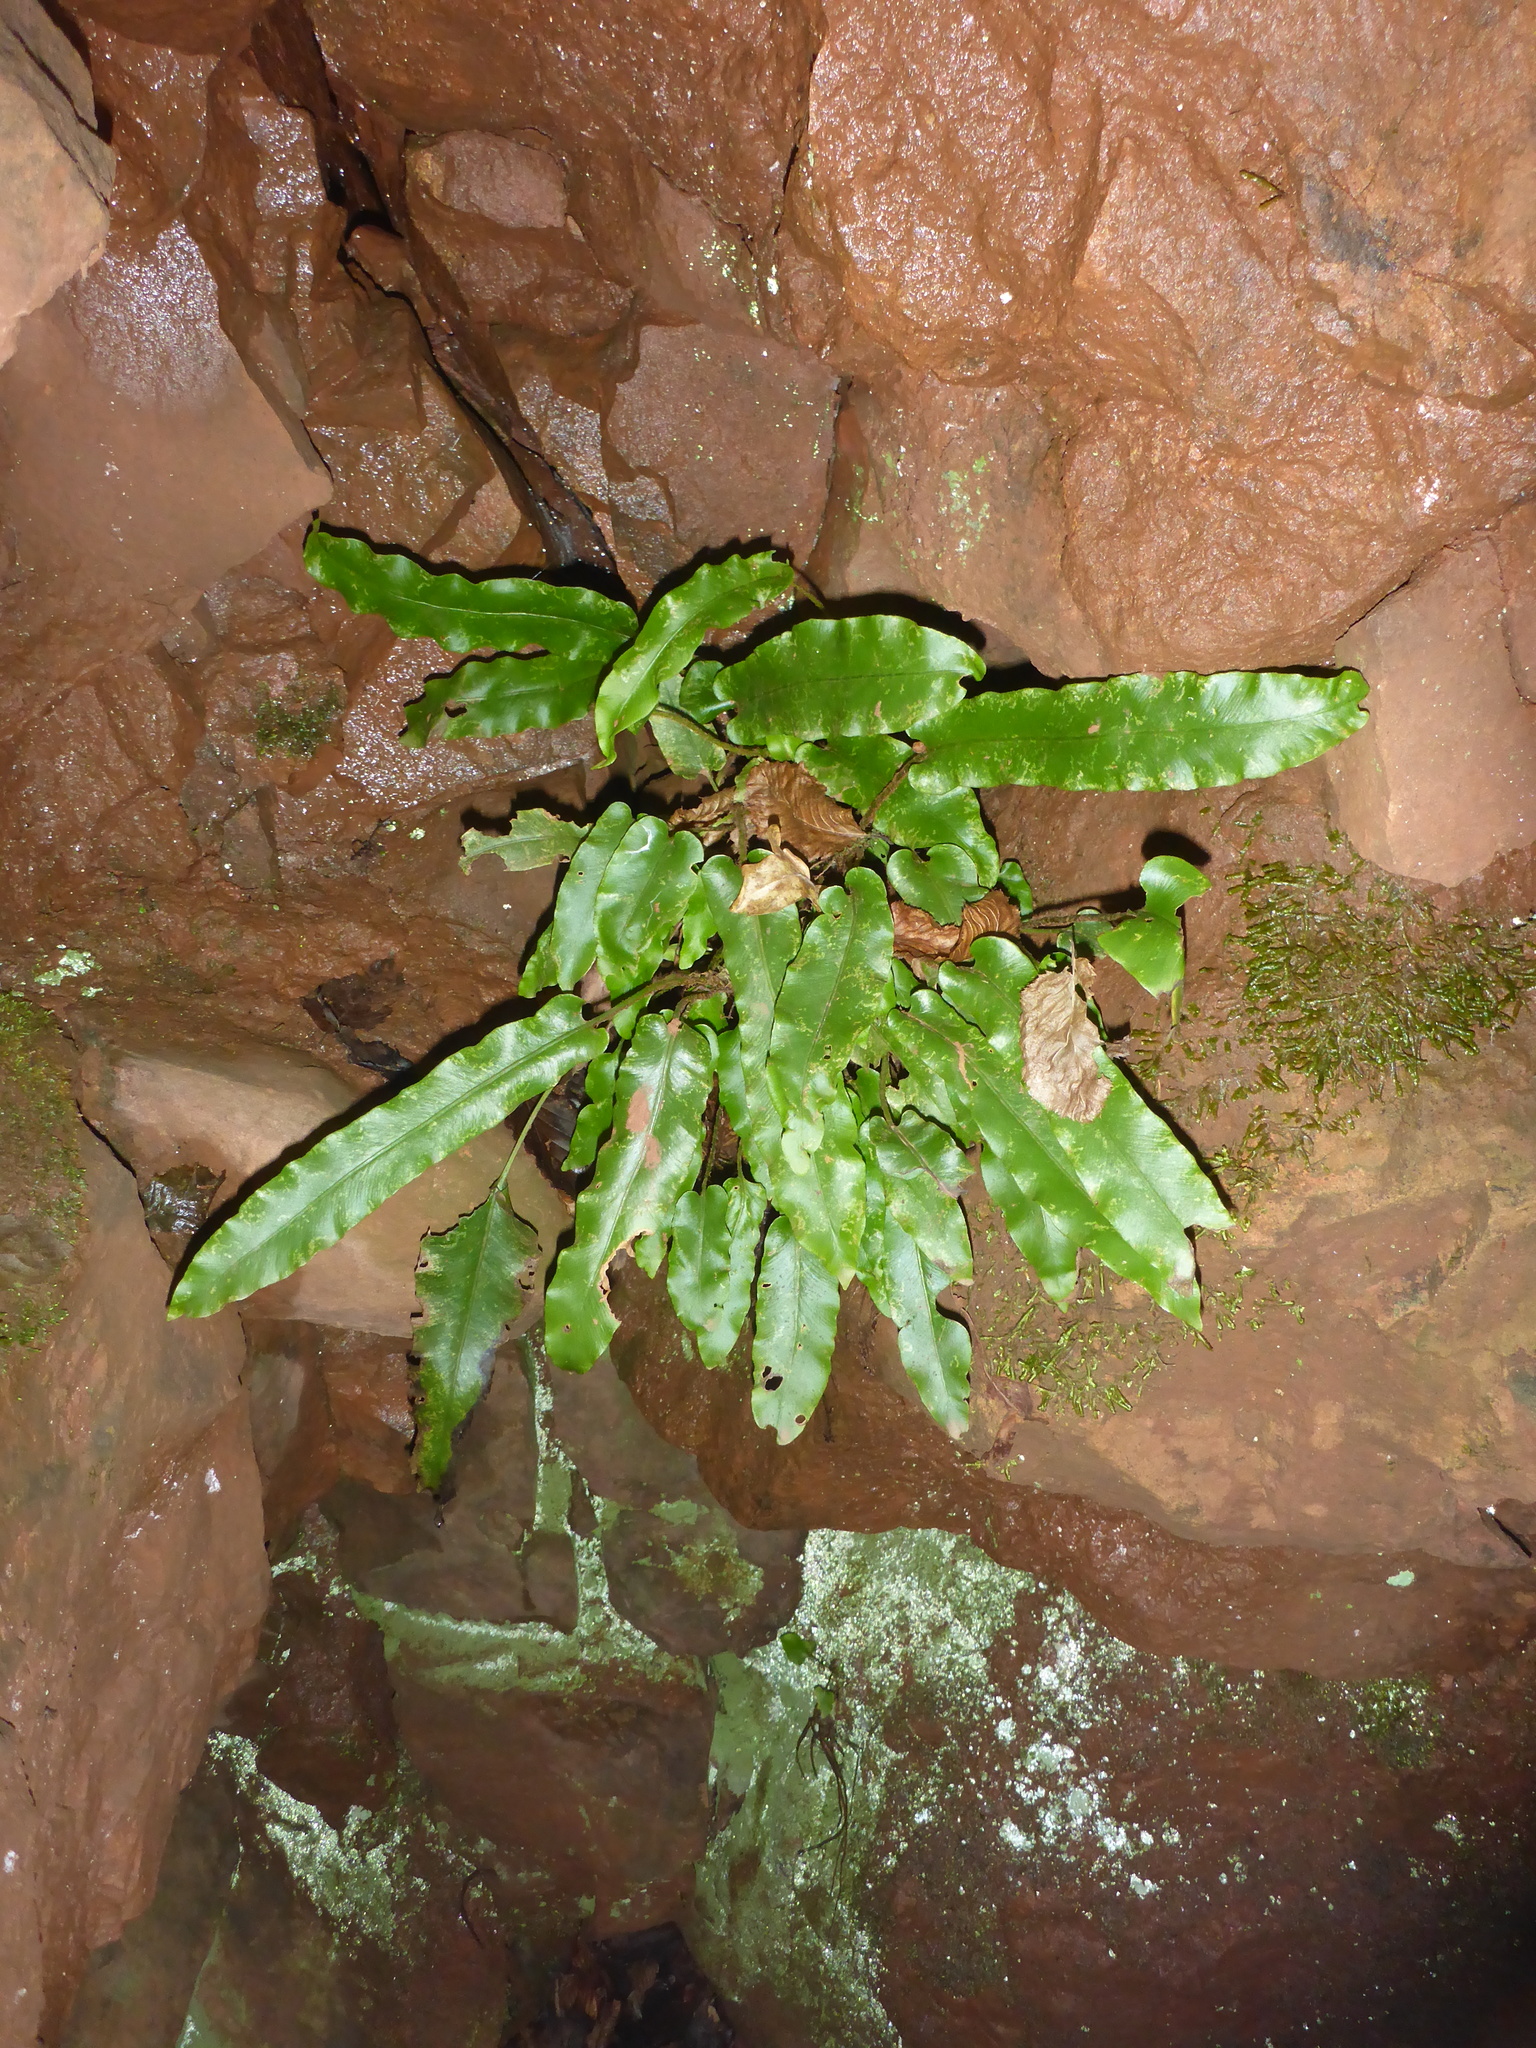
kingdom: Plantae
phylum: Tracheophyta
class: Polypodiopsida
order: Polypodiales
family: Aspleniaceae
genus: Asplenium
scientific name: Asplenium scolopendrium
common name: Hart's-tongue fern
